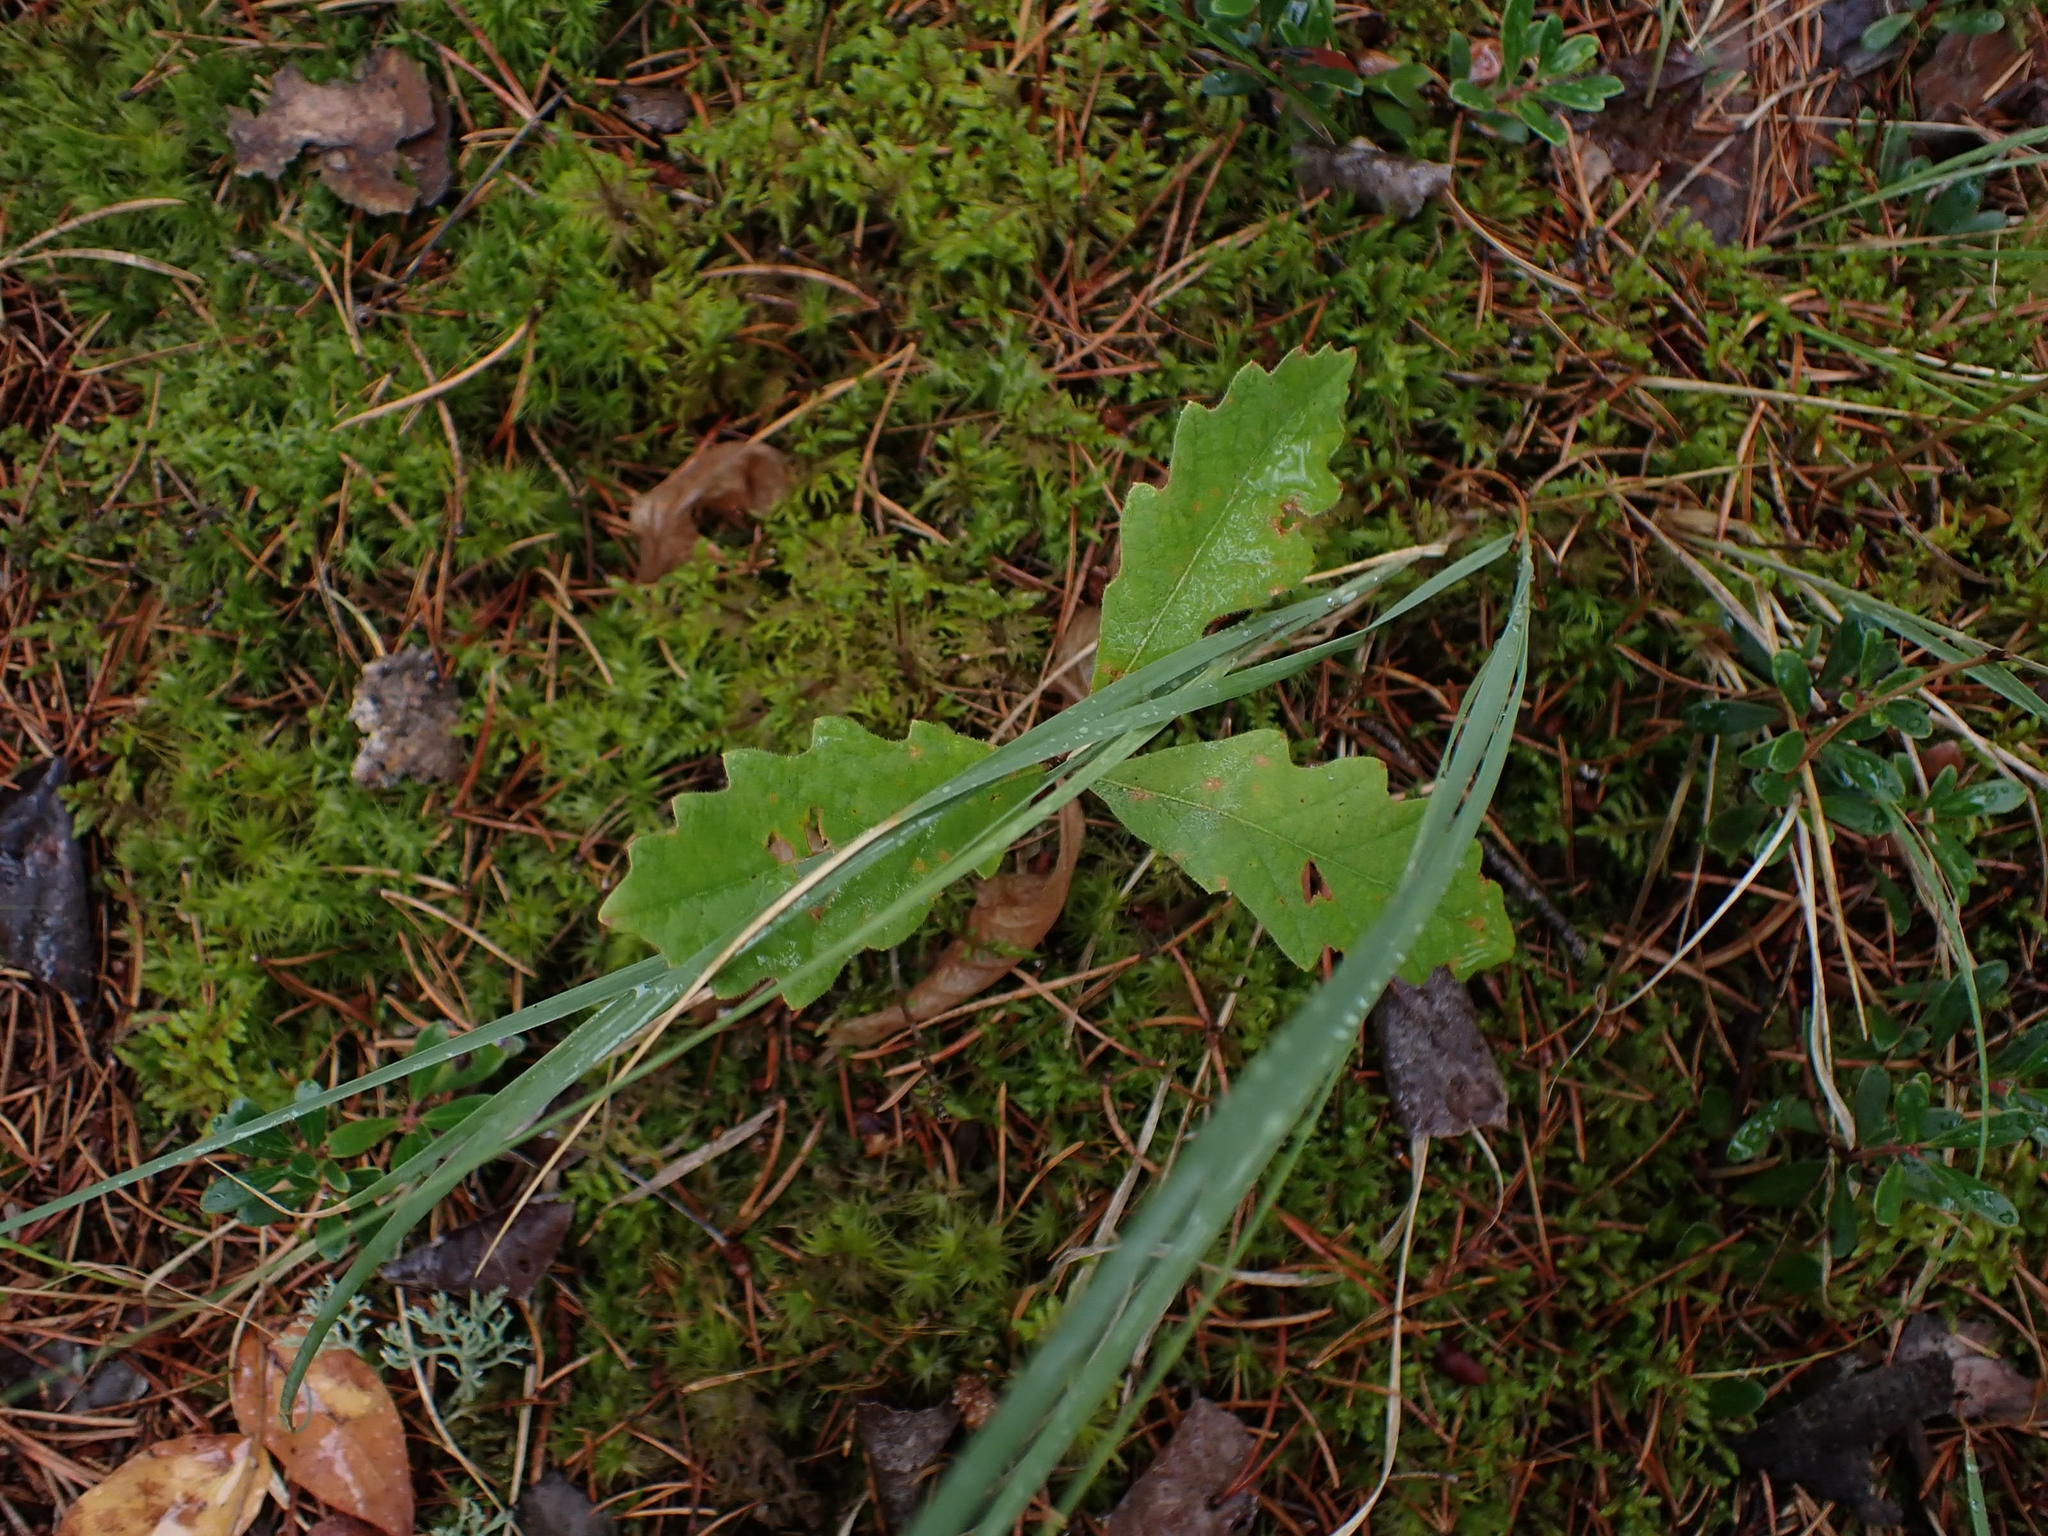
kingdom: Plantae
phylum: Tracheophyta
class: Magnoliopsida
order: Fagales
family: Fagaceae
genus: Quercus
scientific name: Quercus macrocarpa
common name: Bur oak
